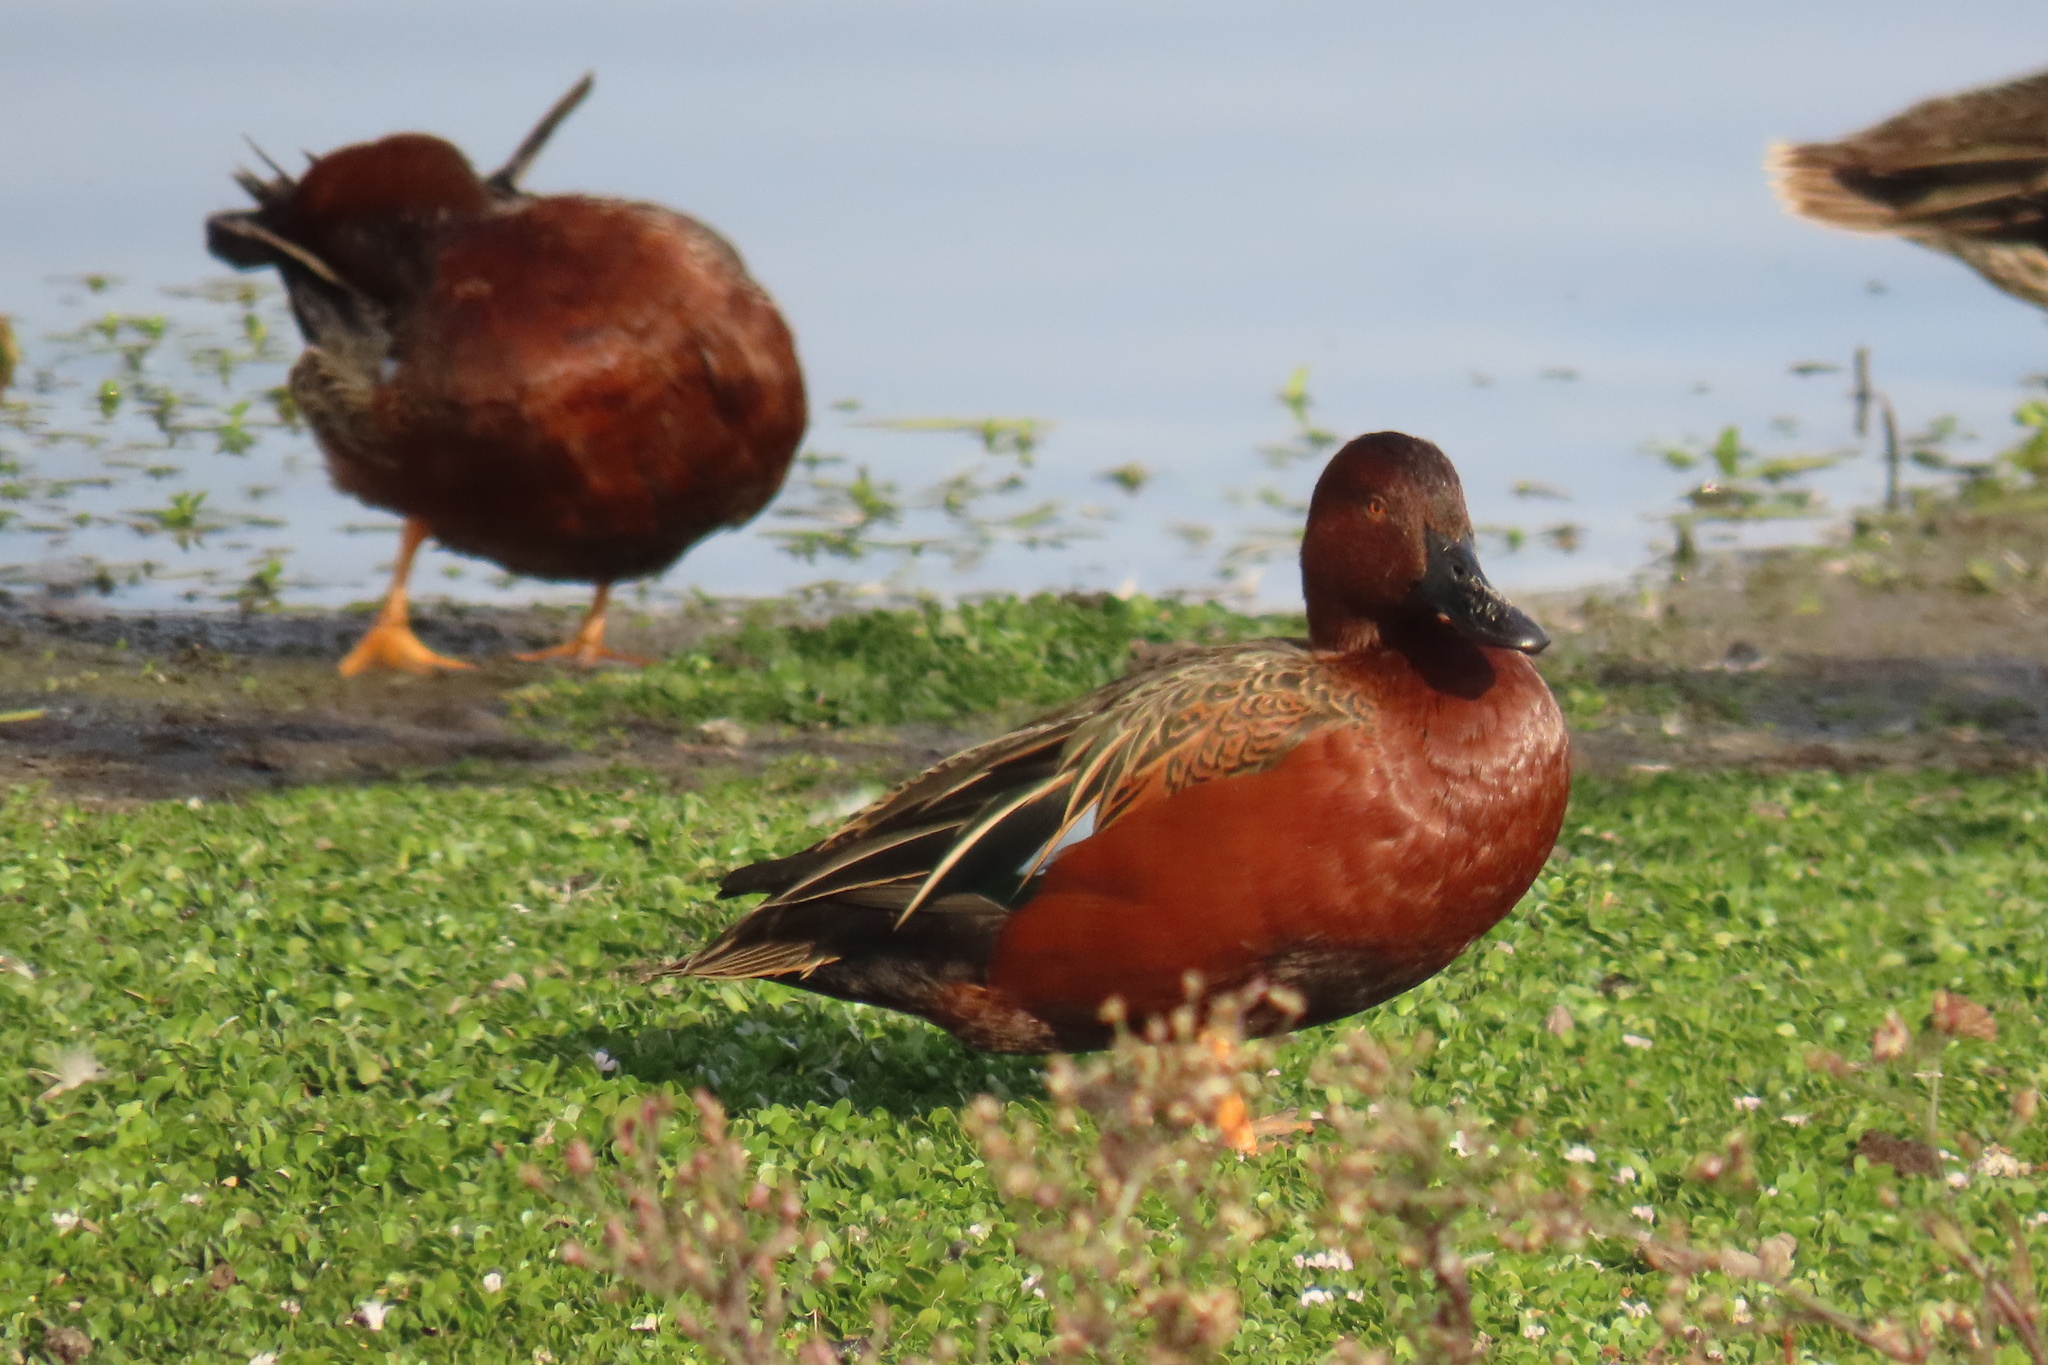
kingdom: Animalia
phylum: Chordata
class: Aves
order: Anseriformes
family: Anatidae
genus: Spatula
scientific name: Spatula cyanoptera
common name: Cinnamon teal
